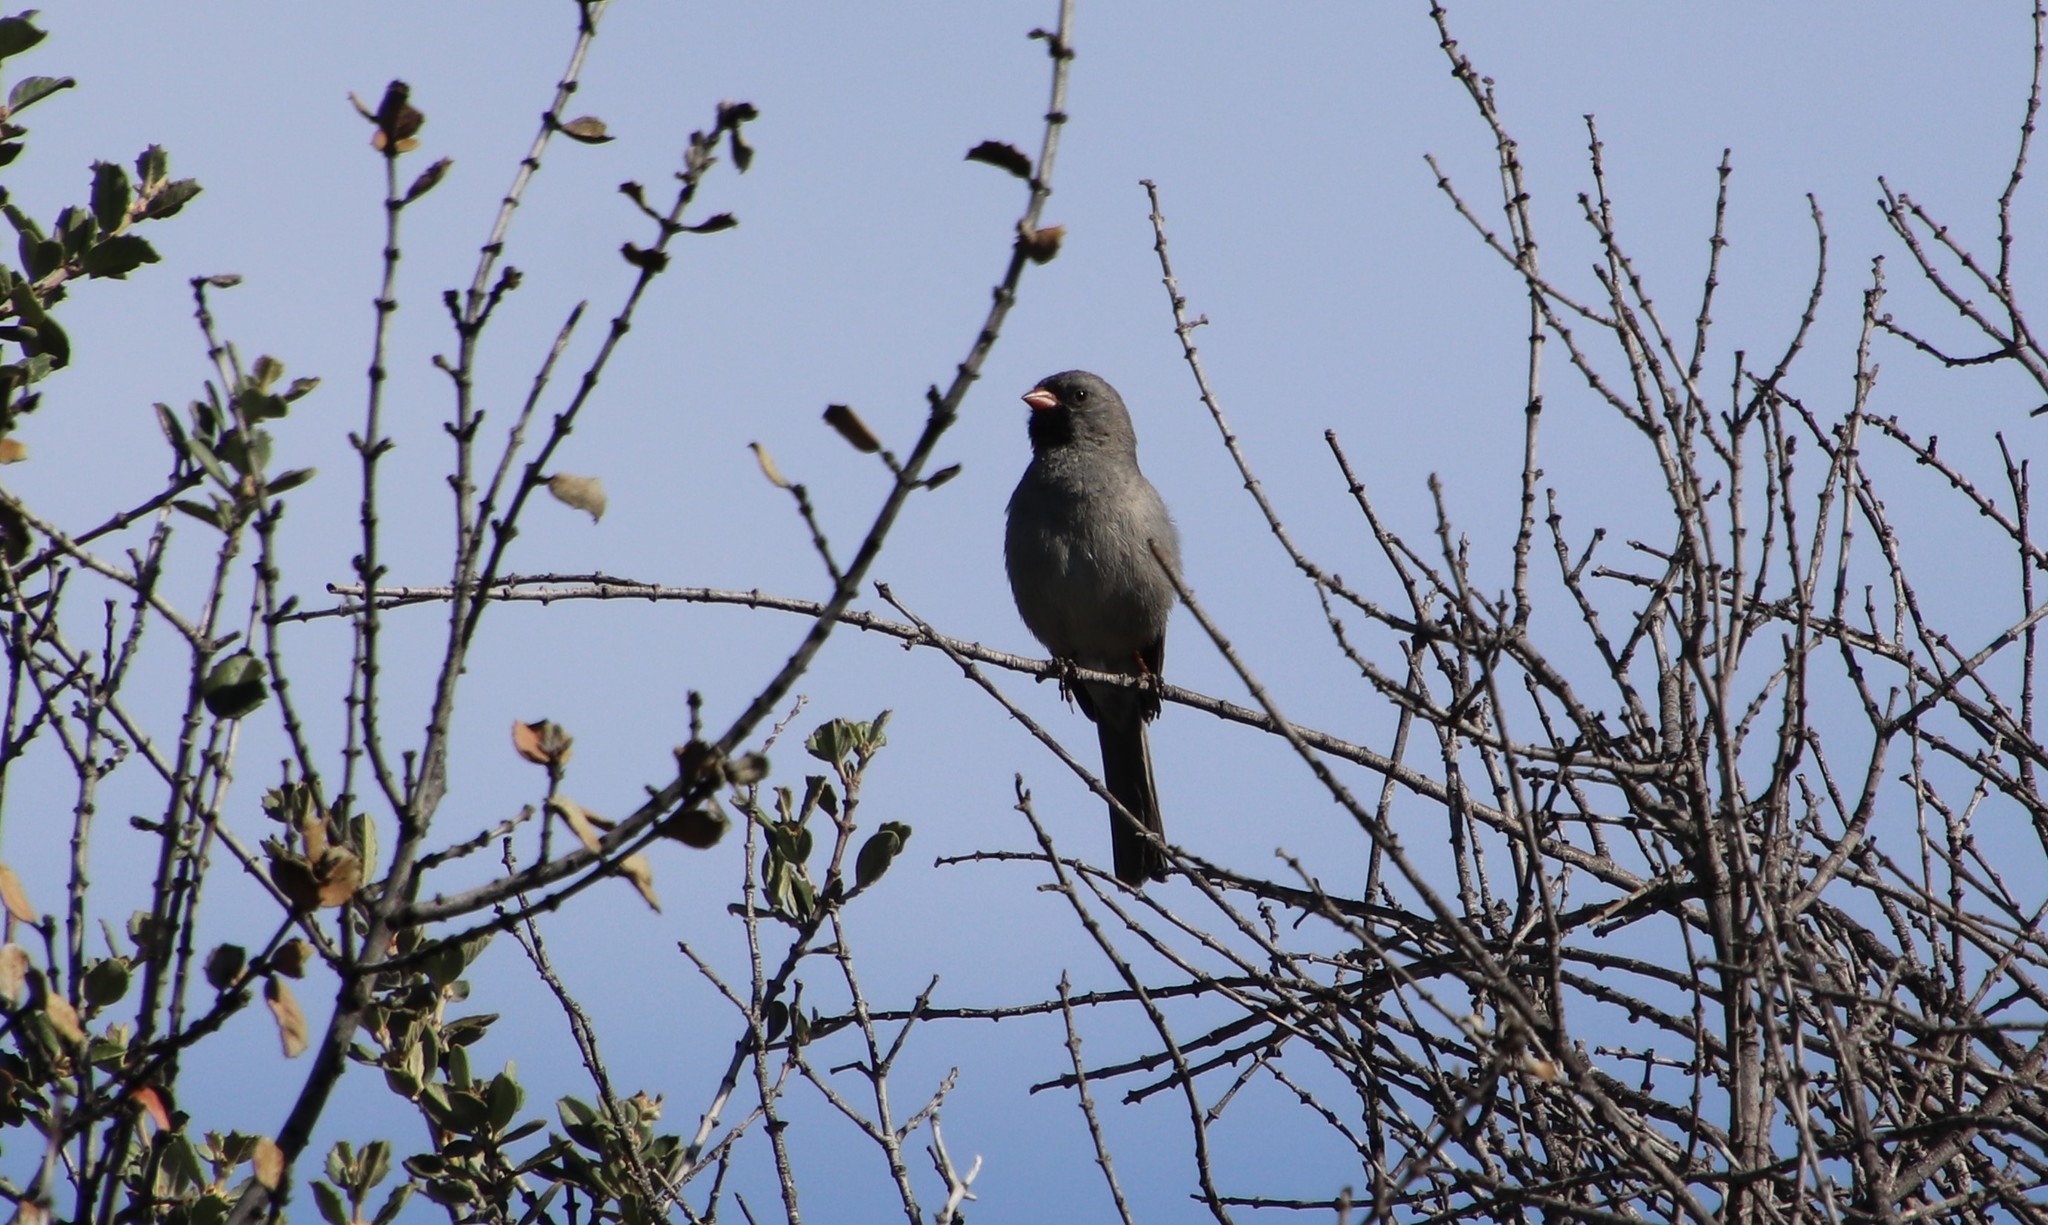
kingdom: Animalia
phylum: Chordata
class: Aves
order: Passeriformes
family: Passerellidae
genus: Spizella
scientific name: Spizella atrogularis
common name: Black-chinned sparrow
